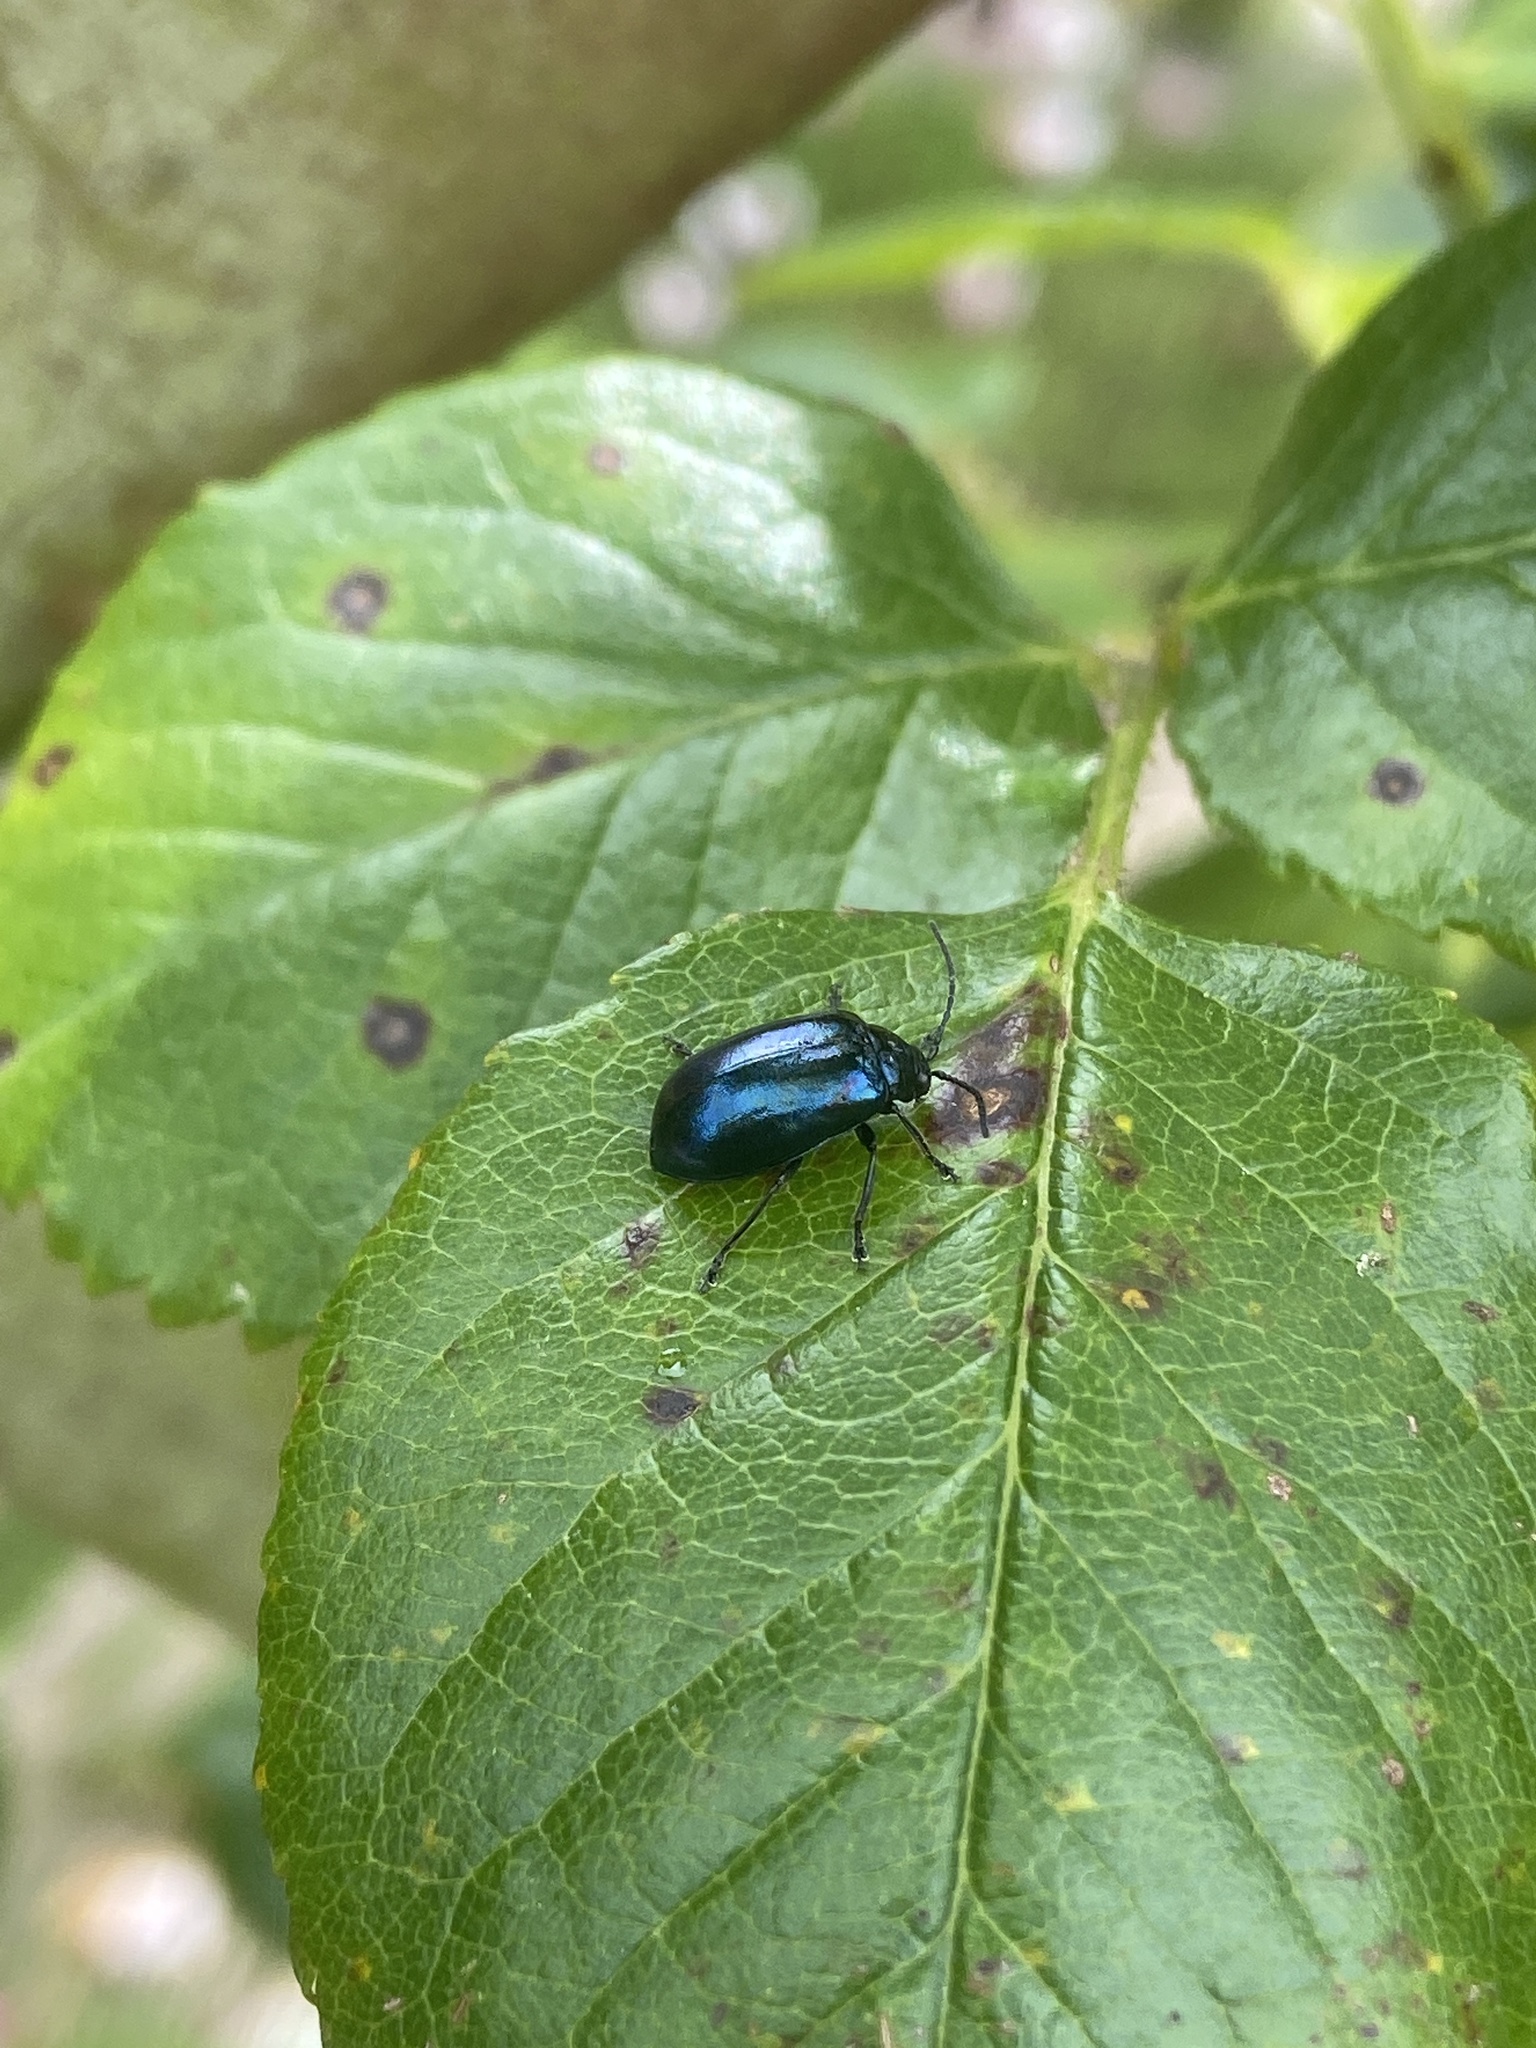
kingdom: Animalia
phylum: Arthropoda
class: Insecta
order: Coleoptera
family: Chrysomelidae
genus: Agelastica
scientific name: Agelastica alni
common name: Alder leaf beetle
